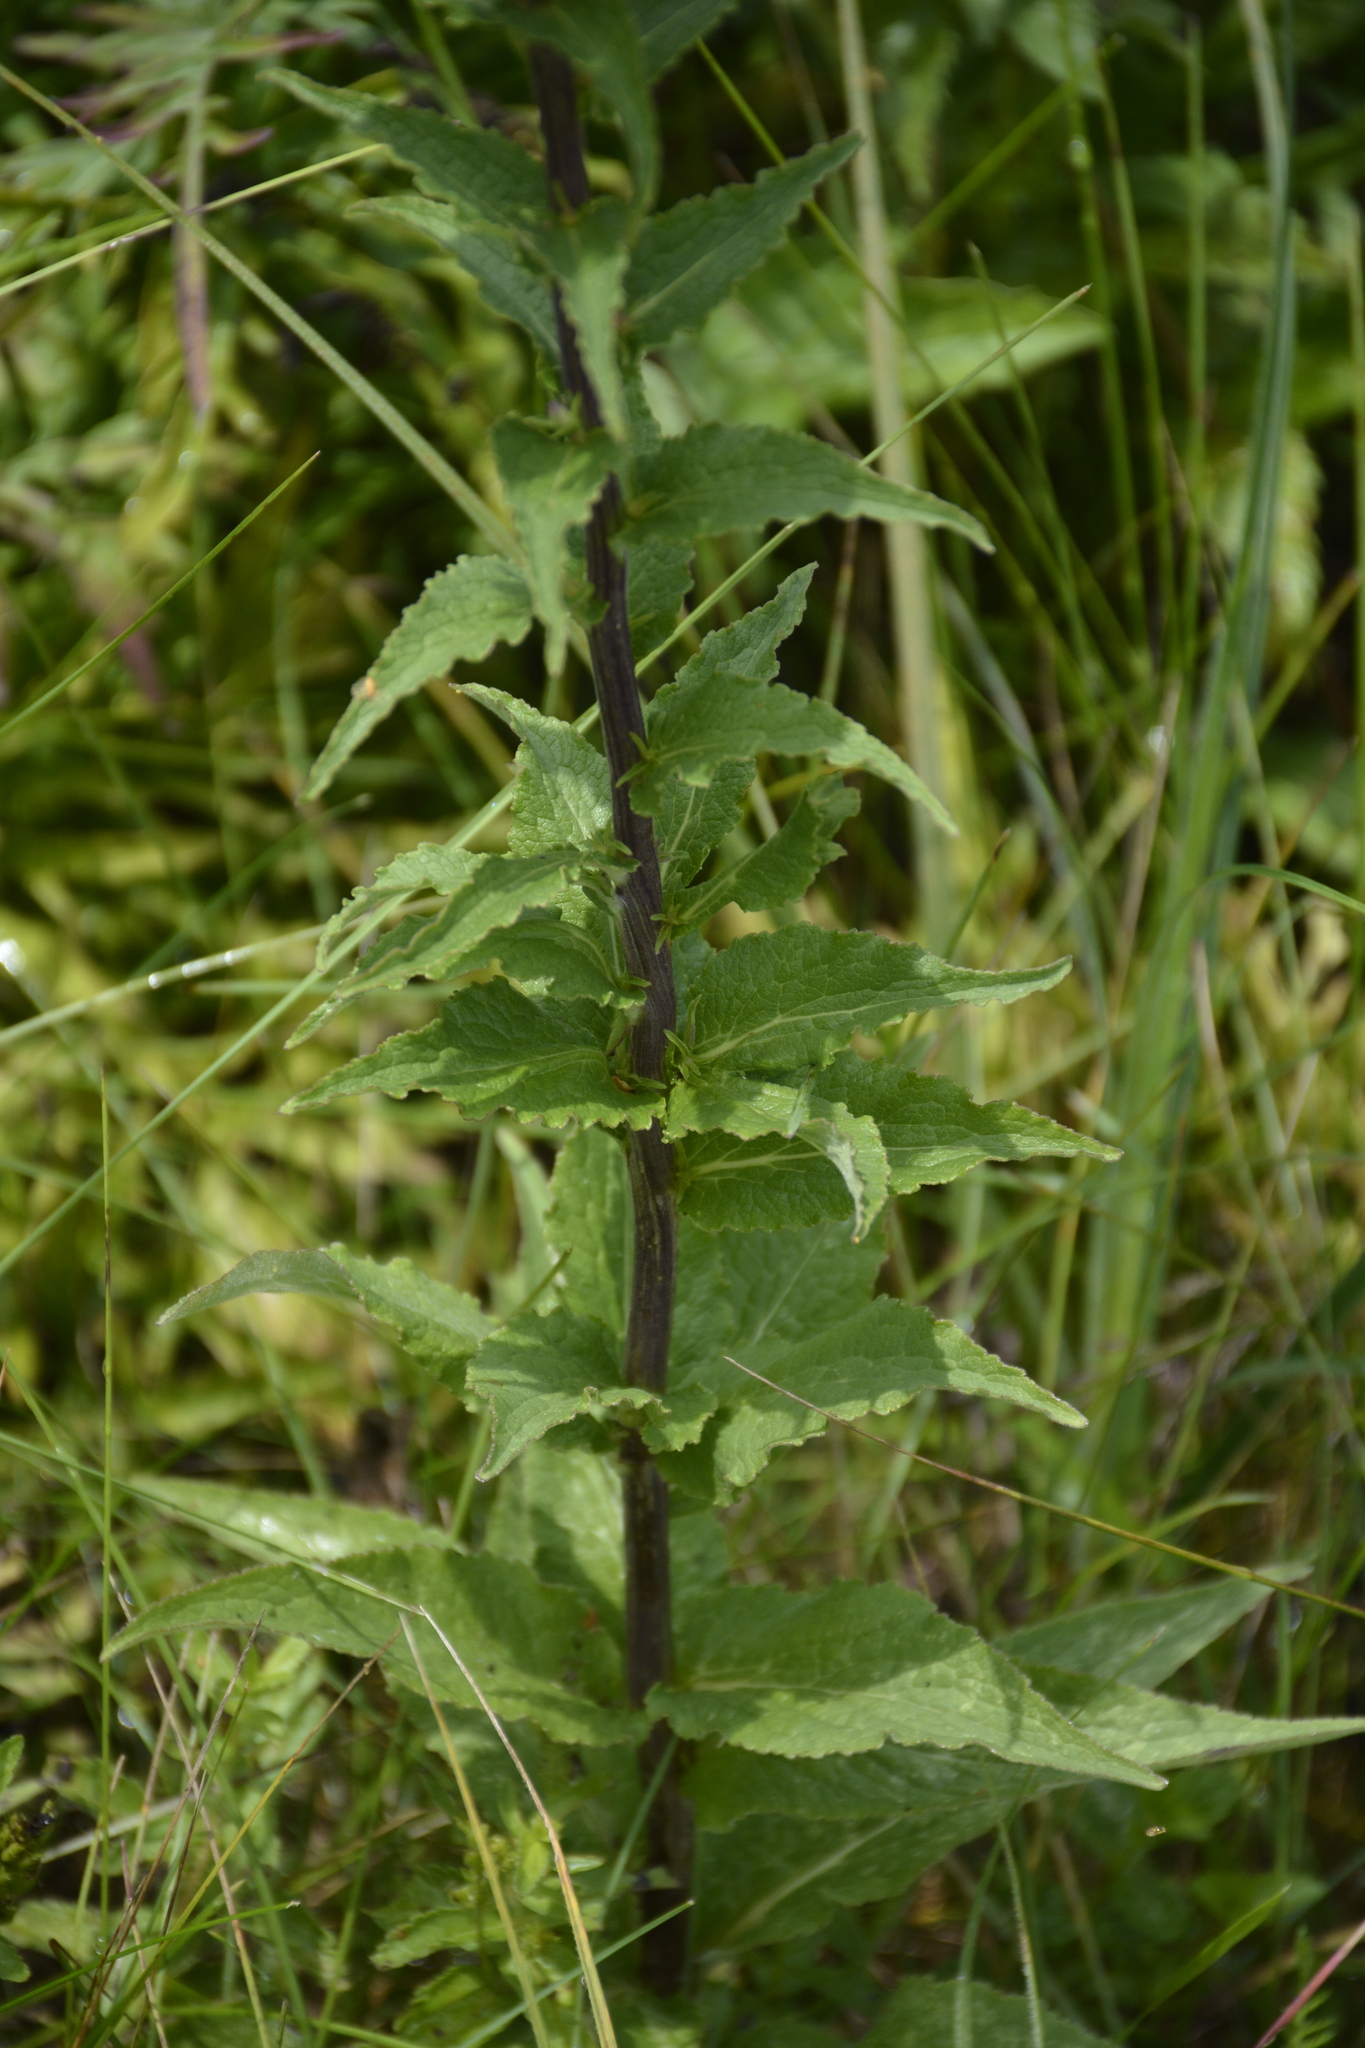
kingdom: Plantae
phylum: Tracheophyta
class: Magnoliopsida
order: Asterales
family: Campanulaceae
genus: Campanula
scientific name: Campanula bononiensis
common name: Pale bellflower
